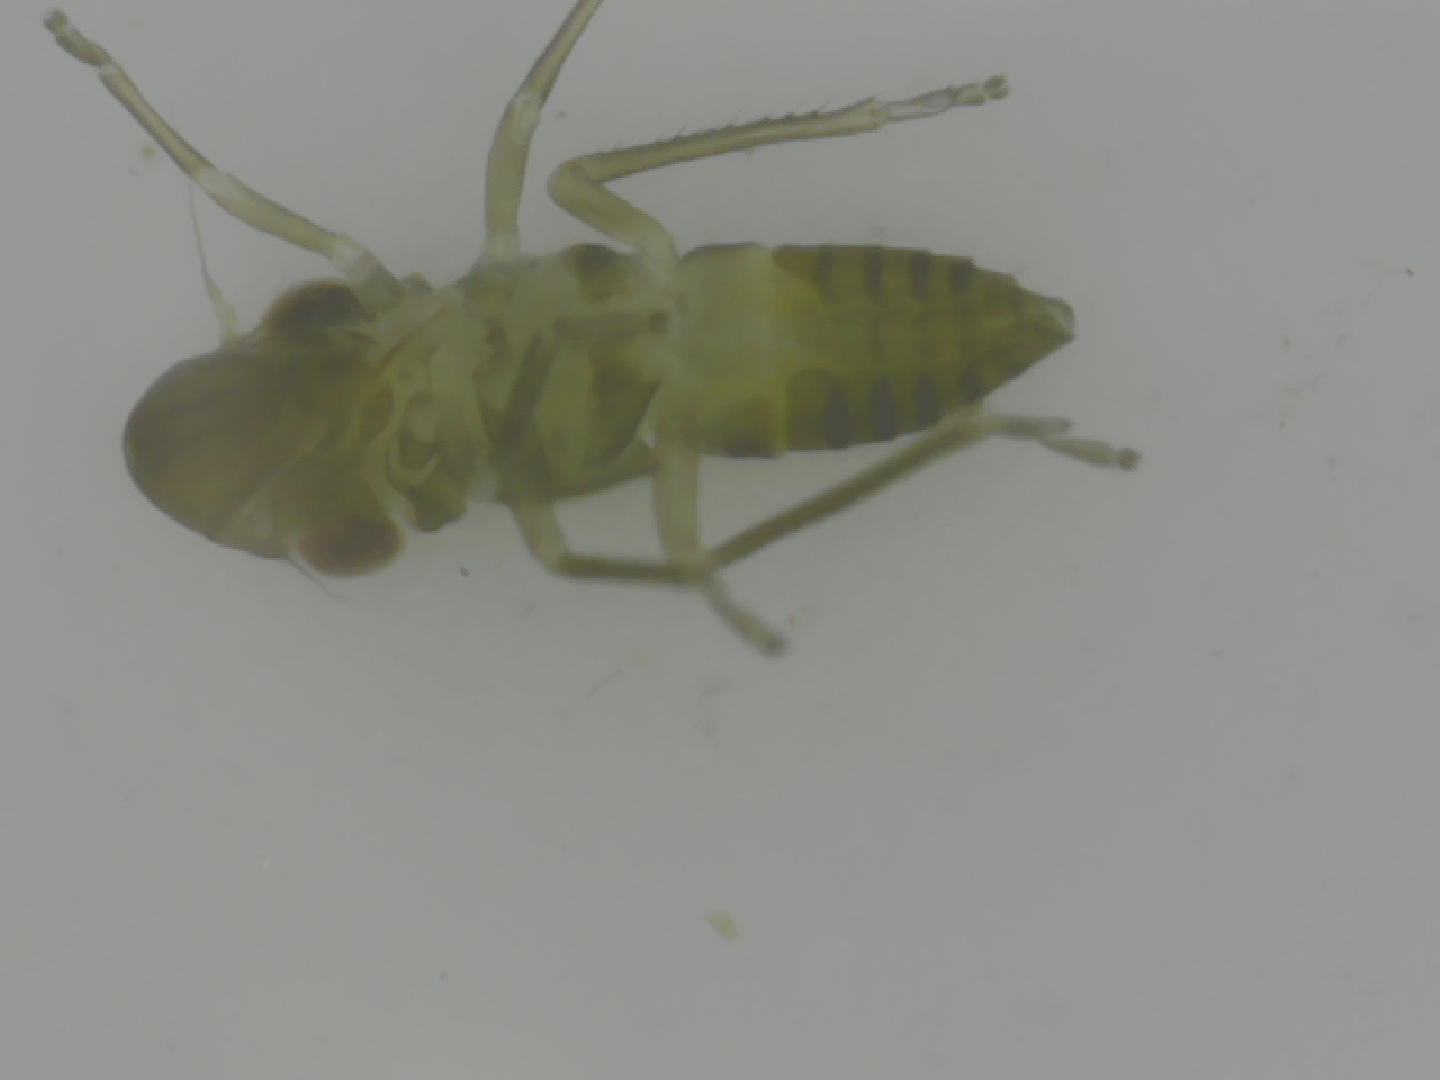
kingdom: Animalia
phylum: Arthropoda
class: Insecta
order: Hemiptera
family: Cicadellidae
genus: Homalodisca
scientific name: Homalodisca
